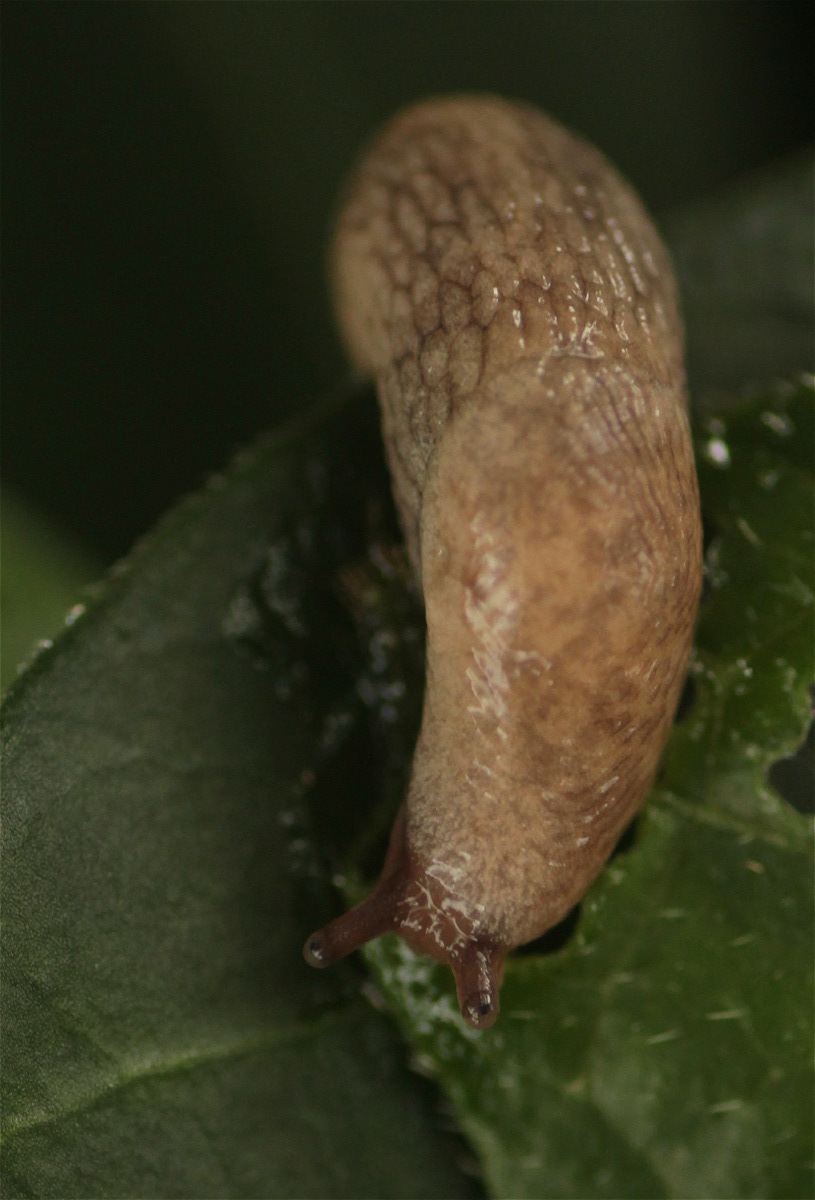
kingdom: Animalia
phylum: Mollusca
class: Gastropoda
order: Stylommatophora
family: Agriolimacidae
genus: Deroceras
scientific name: Deroceras reticulatum
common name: Gray field slug
